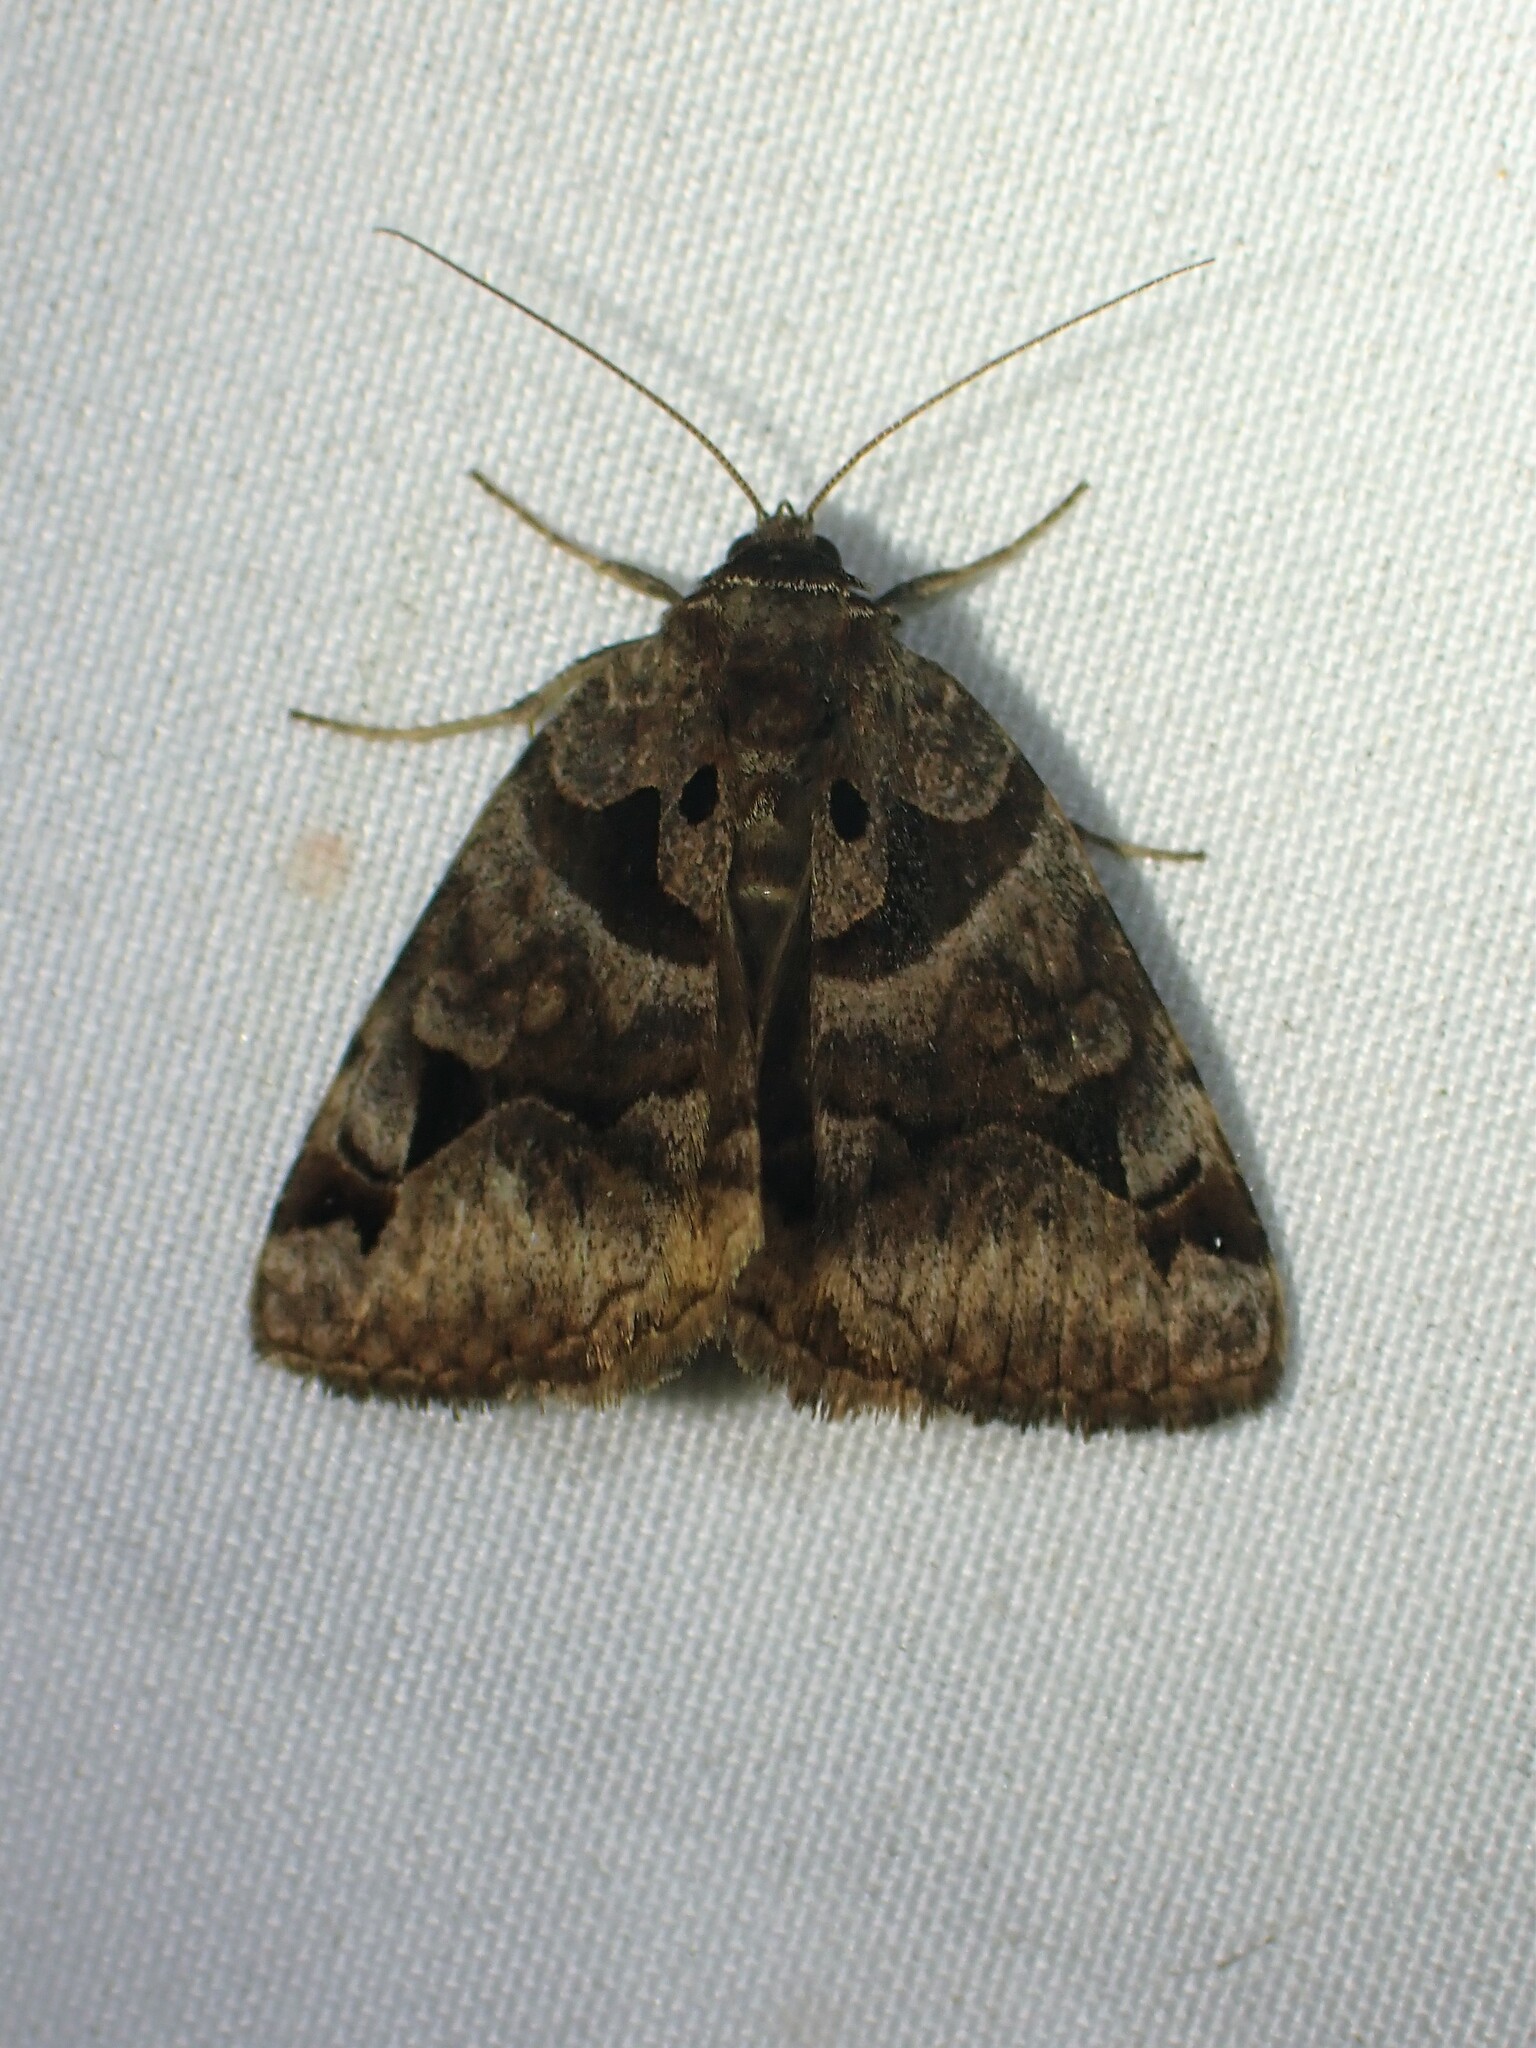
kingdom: Animalia
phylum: Arthropoda
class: Insecta
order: Lepidoptera
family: Erebidae
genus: Euclidia
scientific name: Euclidia cuspidea
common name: Toothed somberwing
